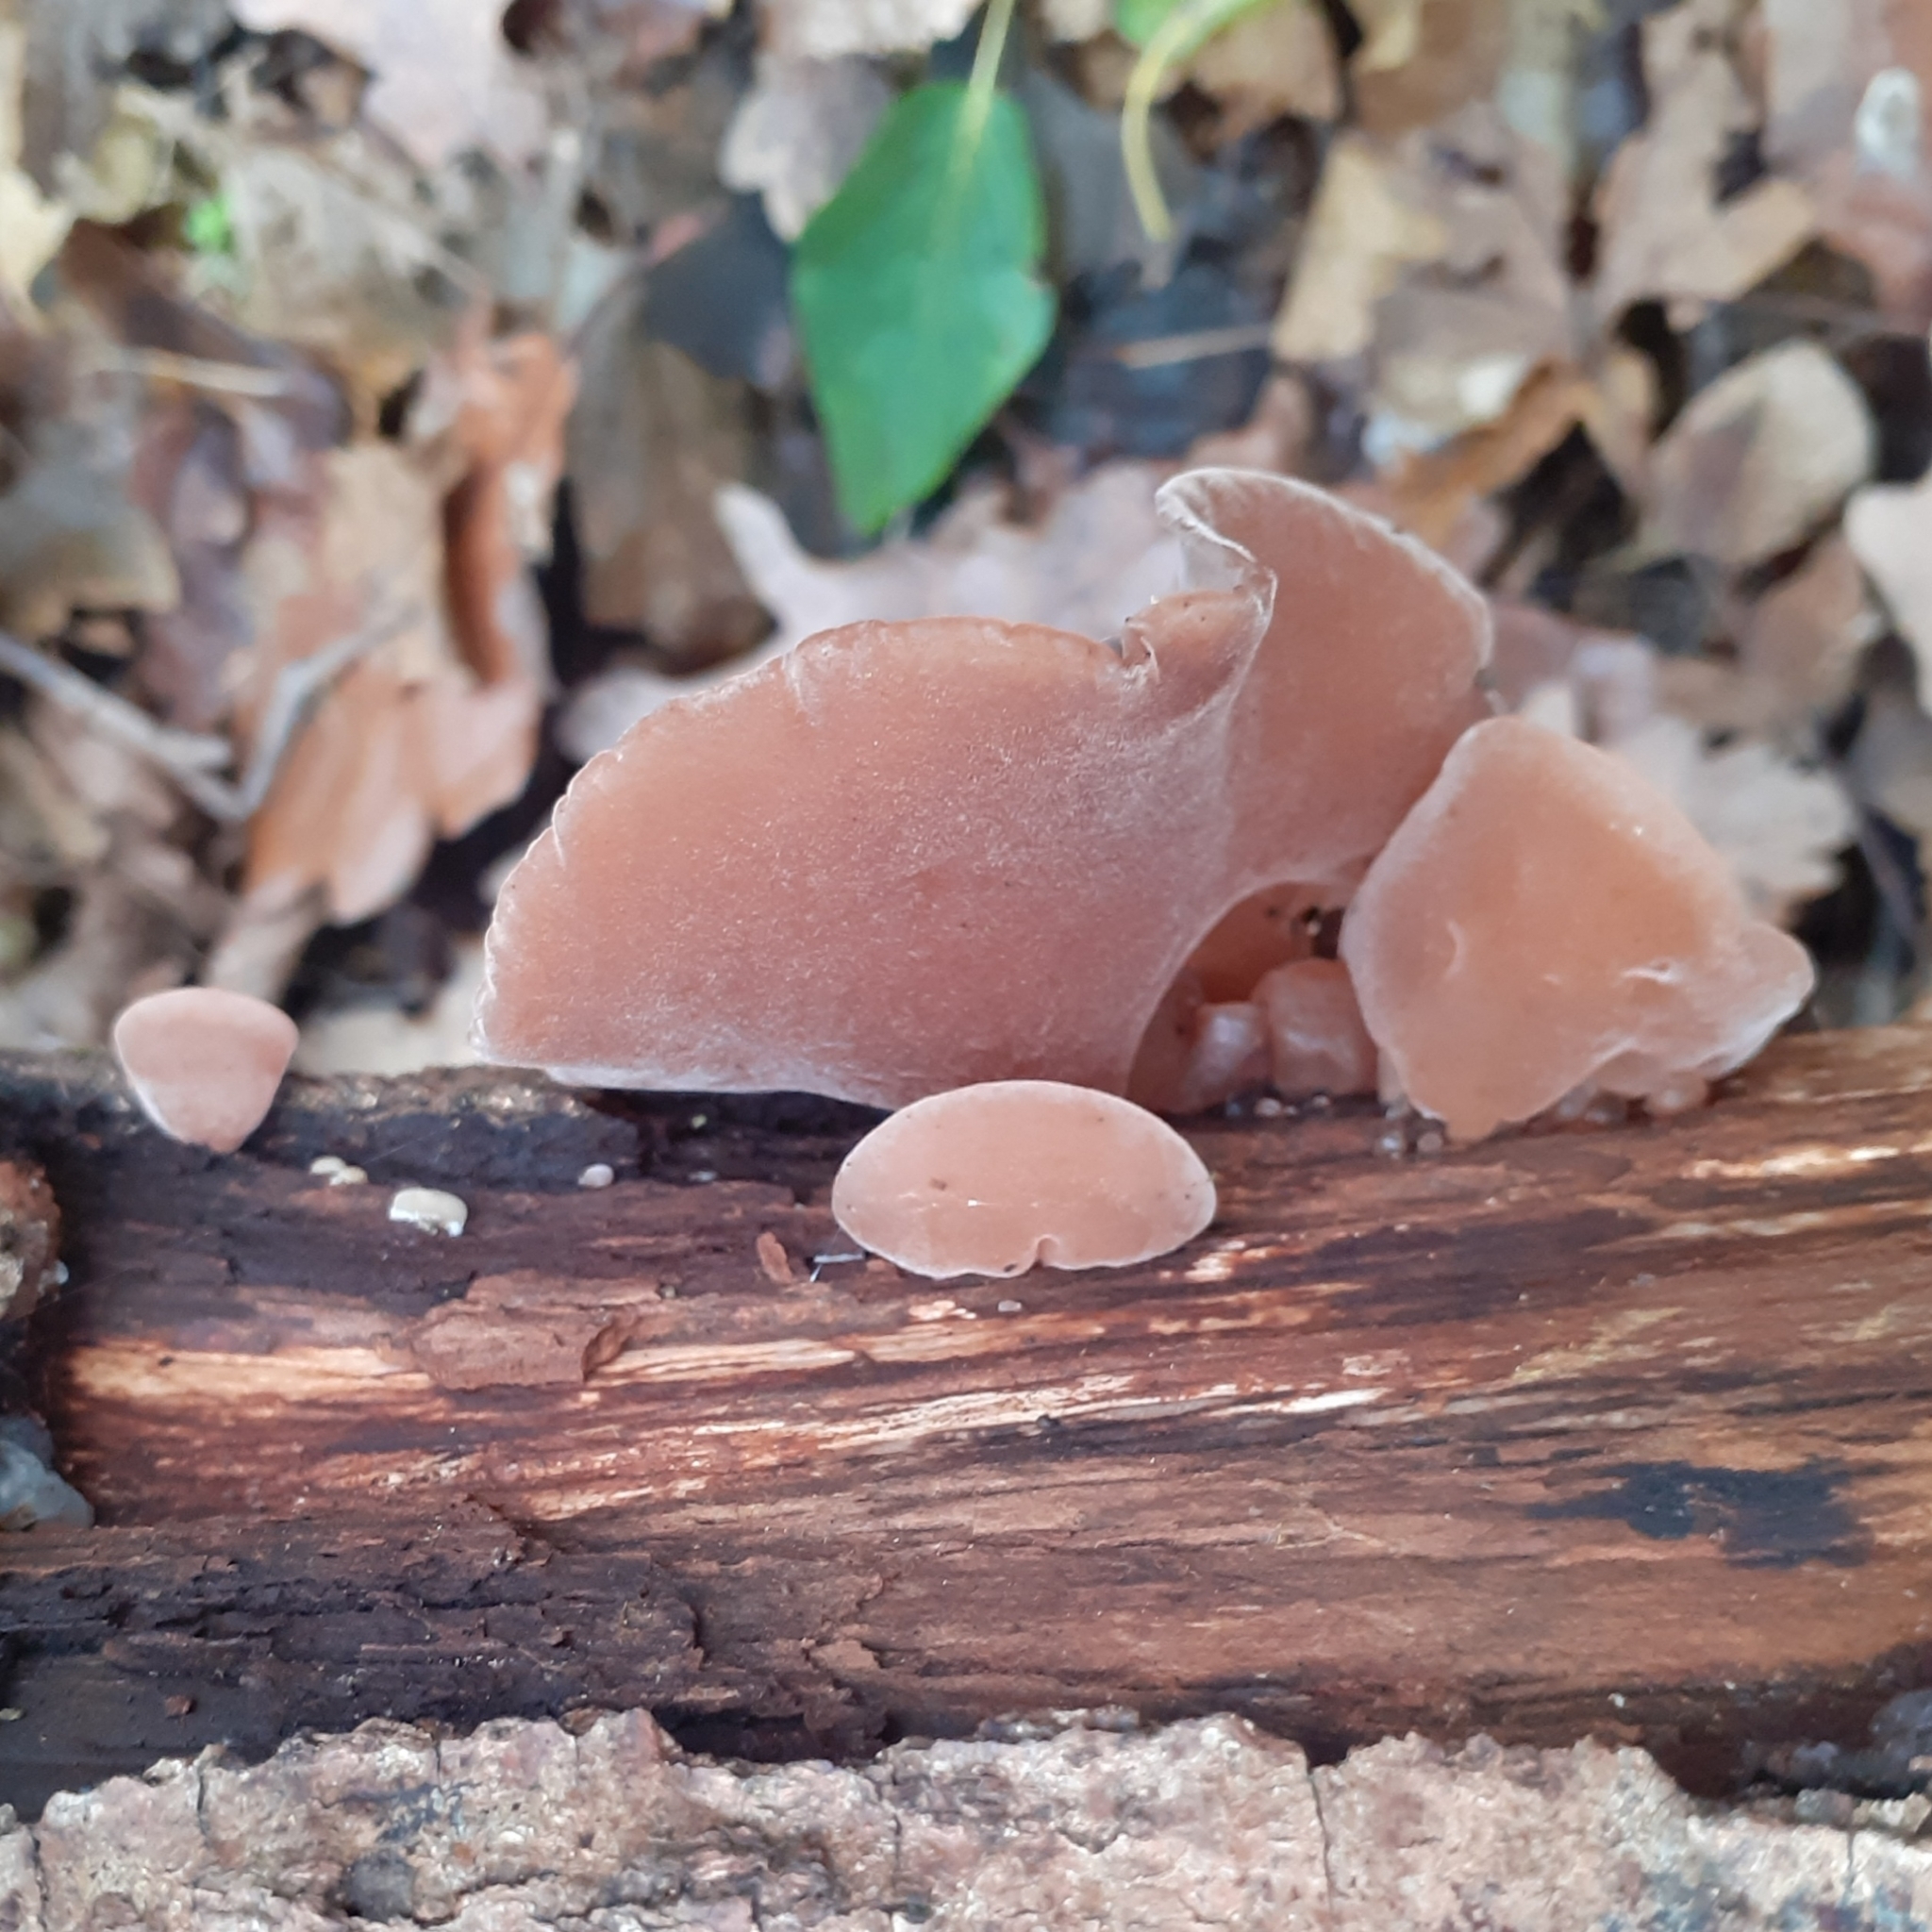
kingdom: Fungi
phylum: Basidiomycota
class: Agaricomycetes
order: Auriculariales
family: Auriculariaceae
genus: Auricularia
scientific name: Auricularia auricula-judae
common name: Jelly ear
